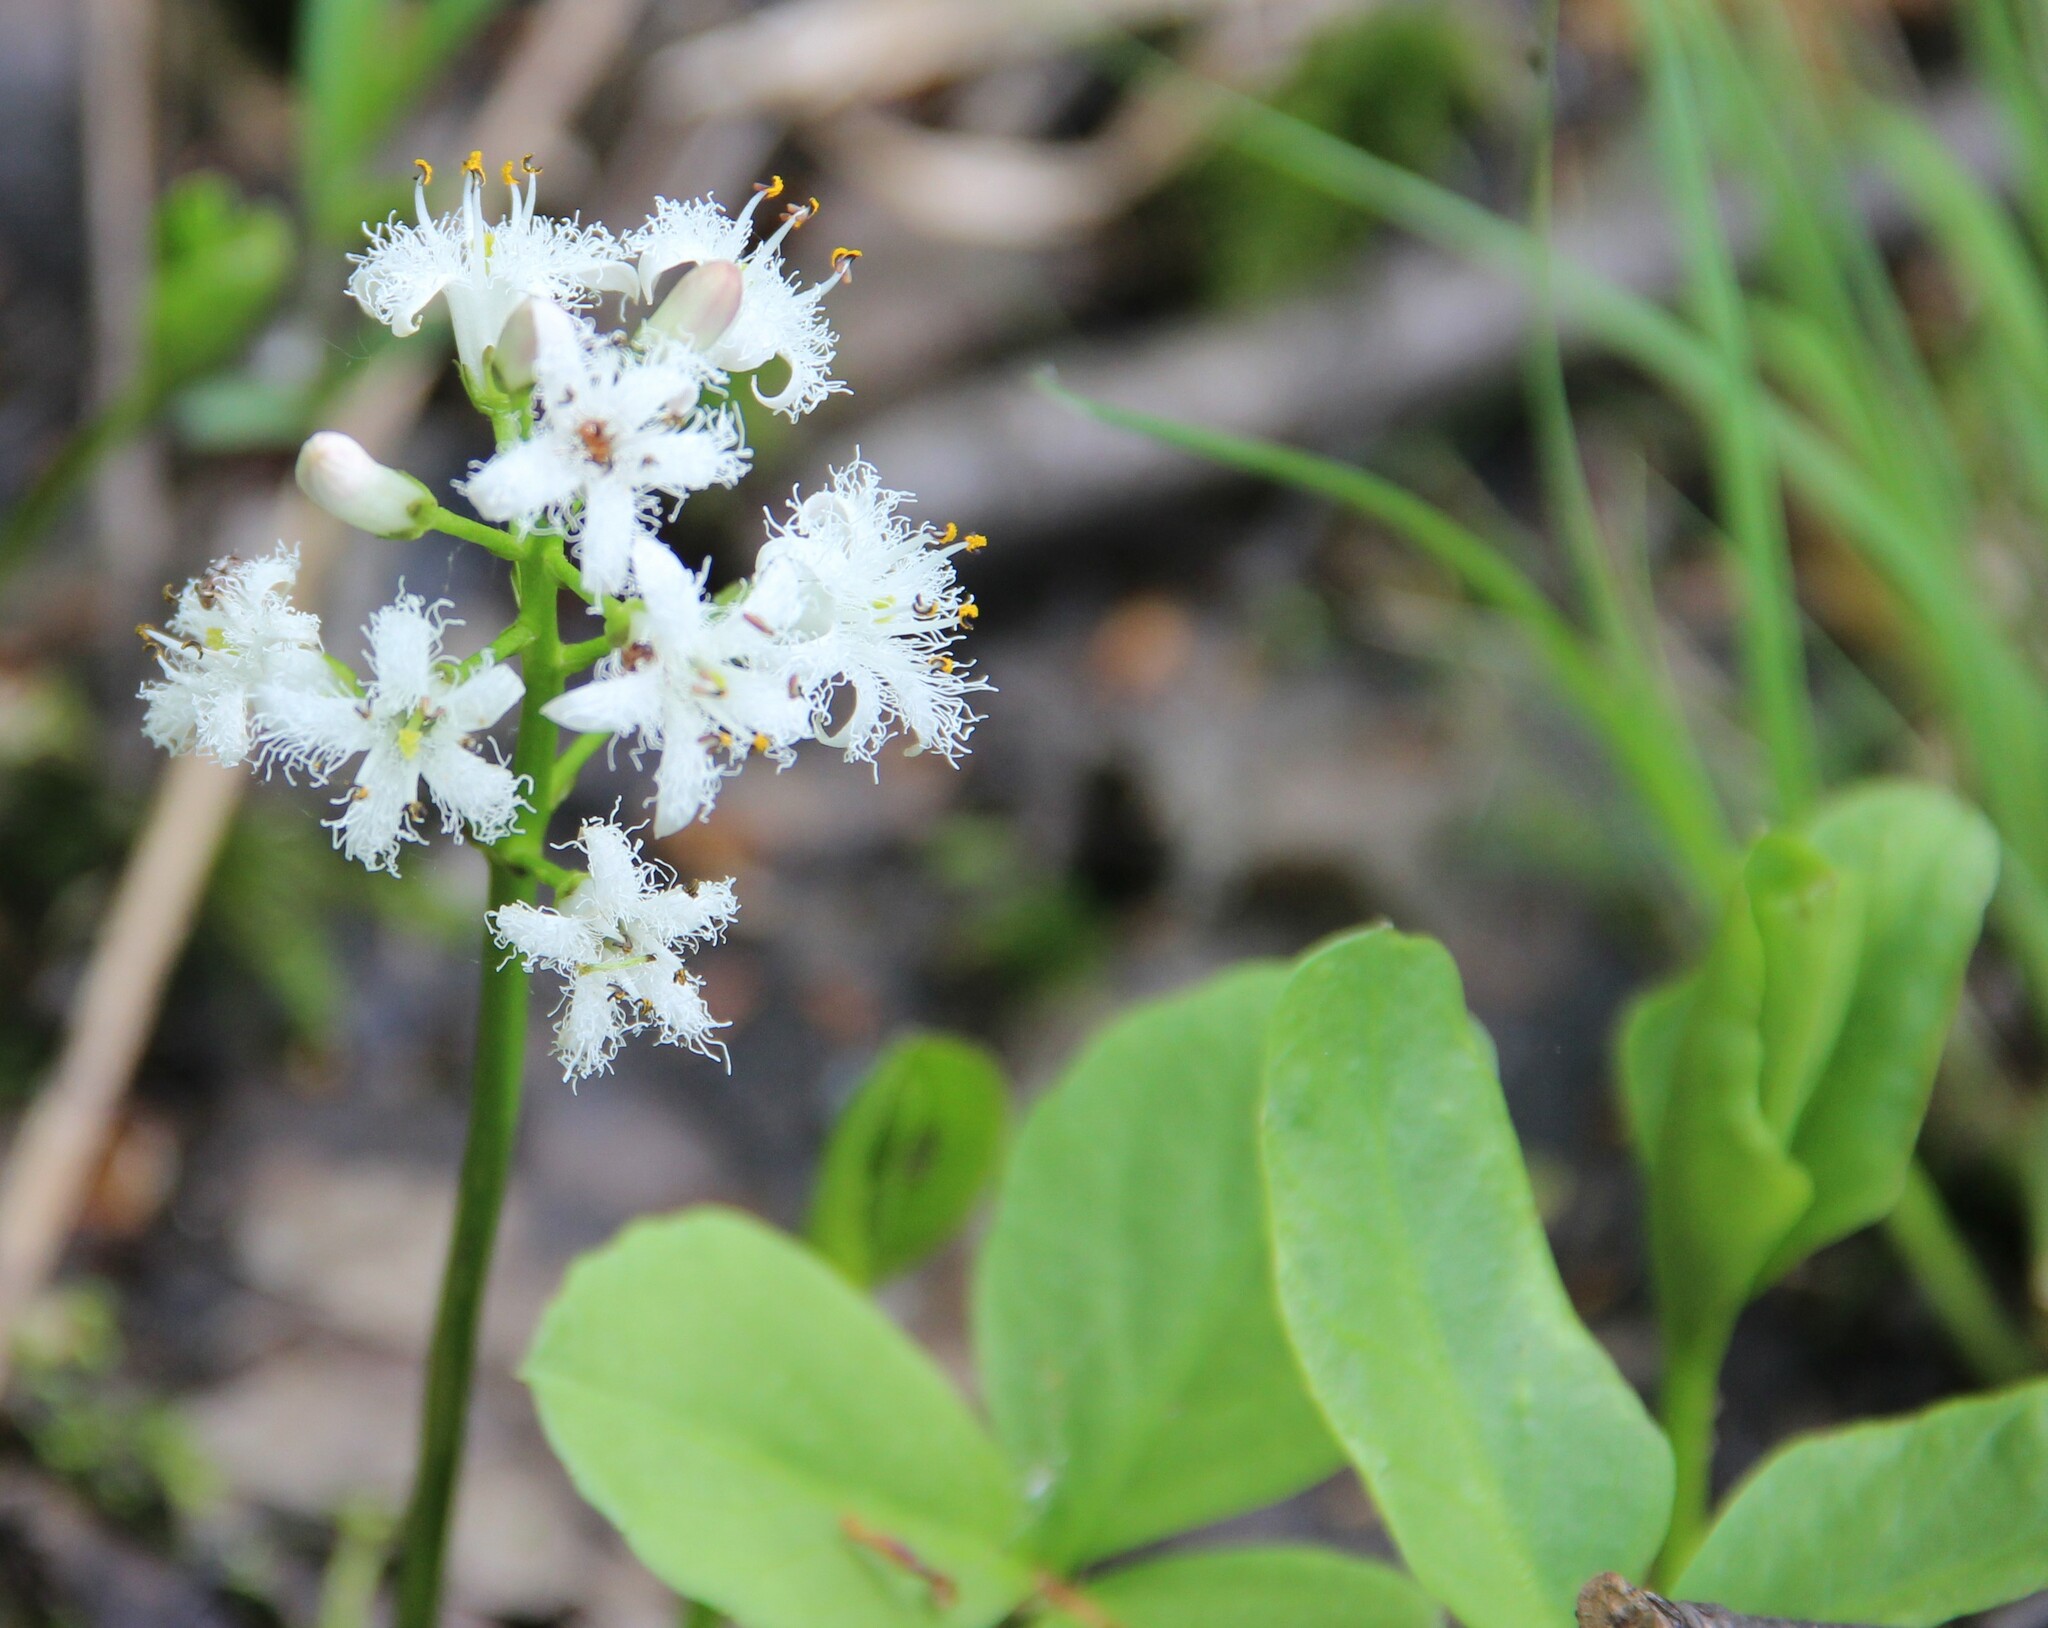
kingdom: Plantae
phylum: Tracheophyta
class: Magnoliopsida
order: Asterales
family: Menyanthaceae
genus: Menyanthes
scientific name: Menyanthes trifoliata
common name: Bogbean
